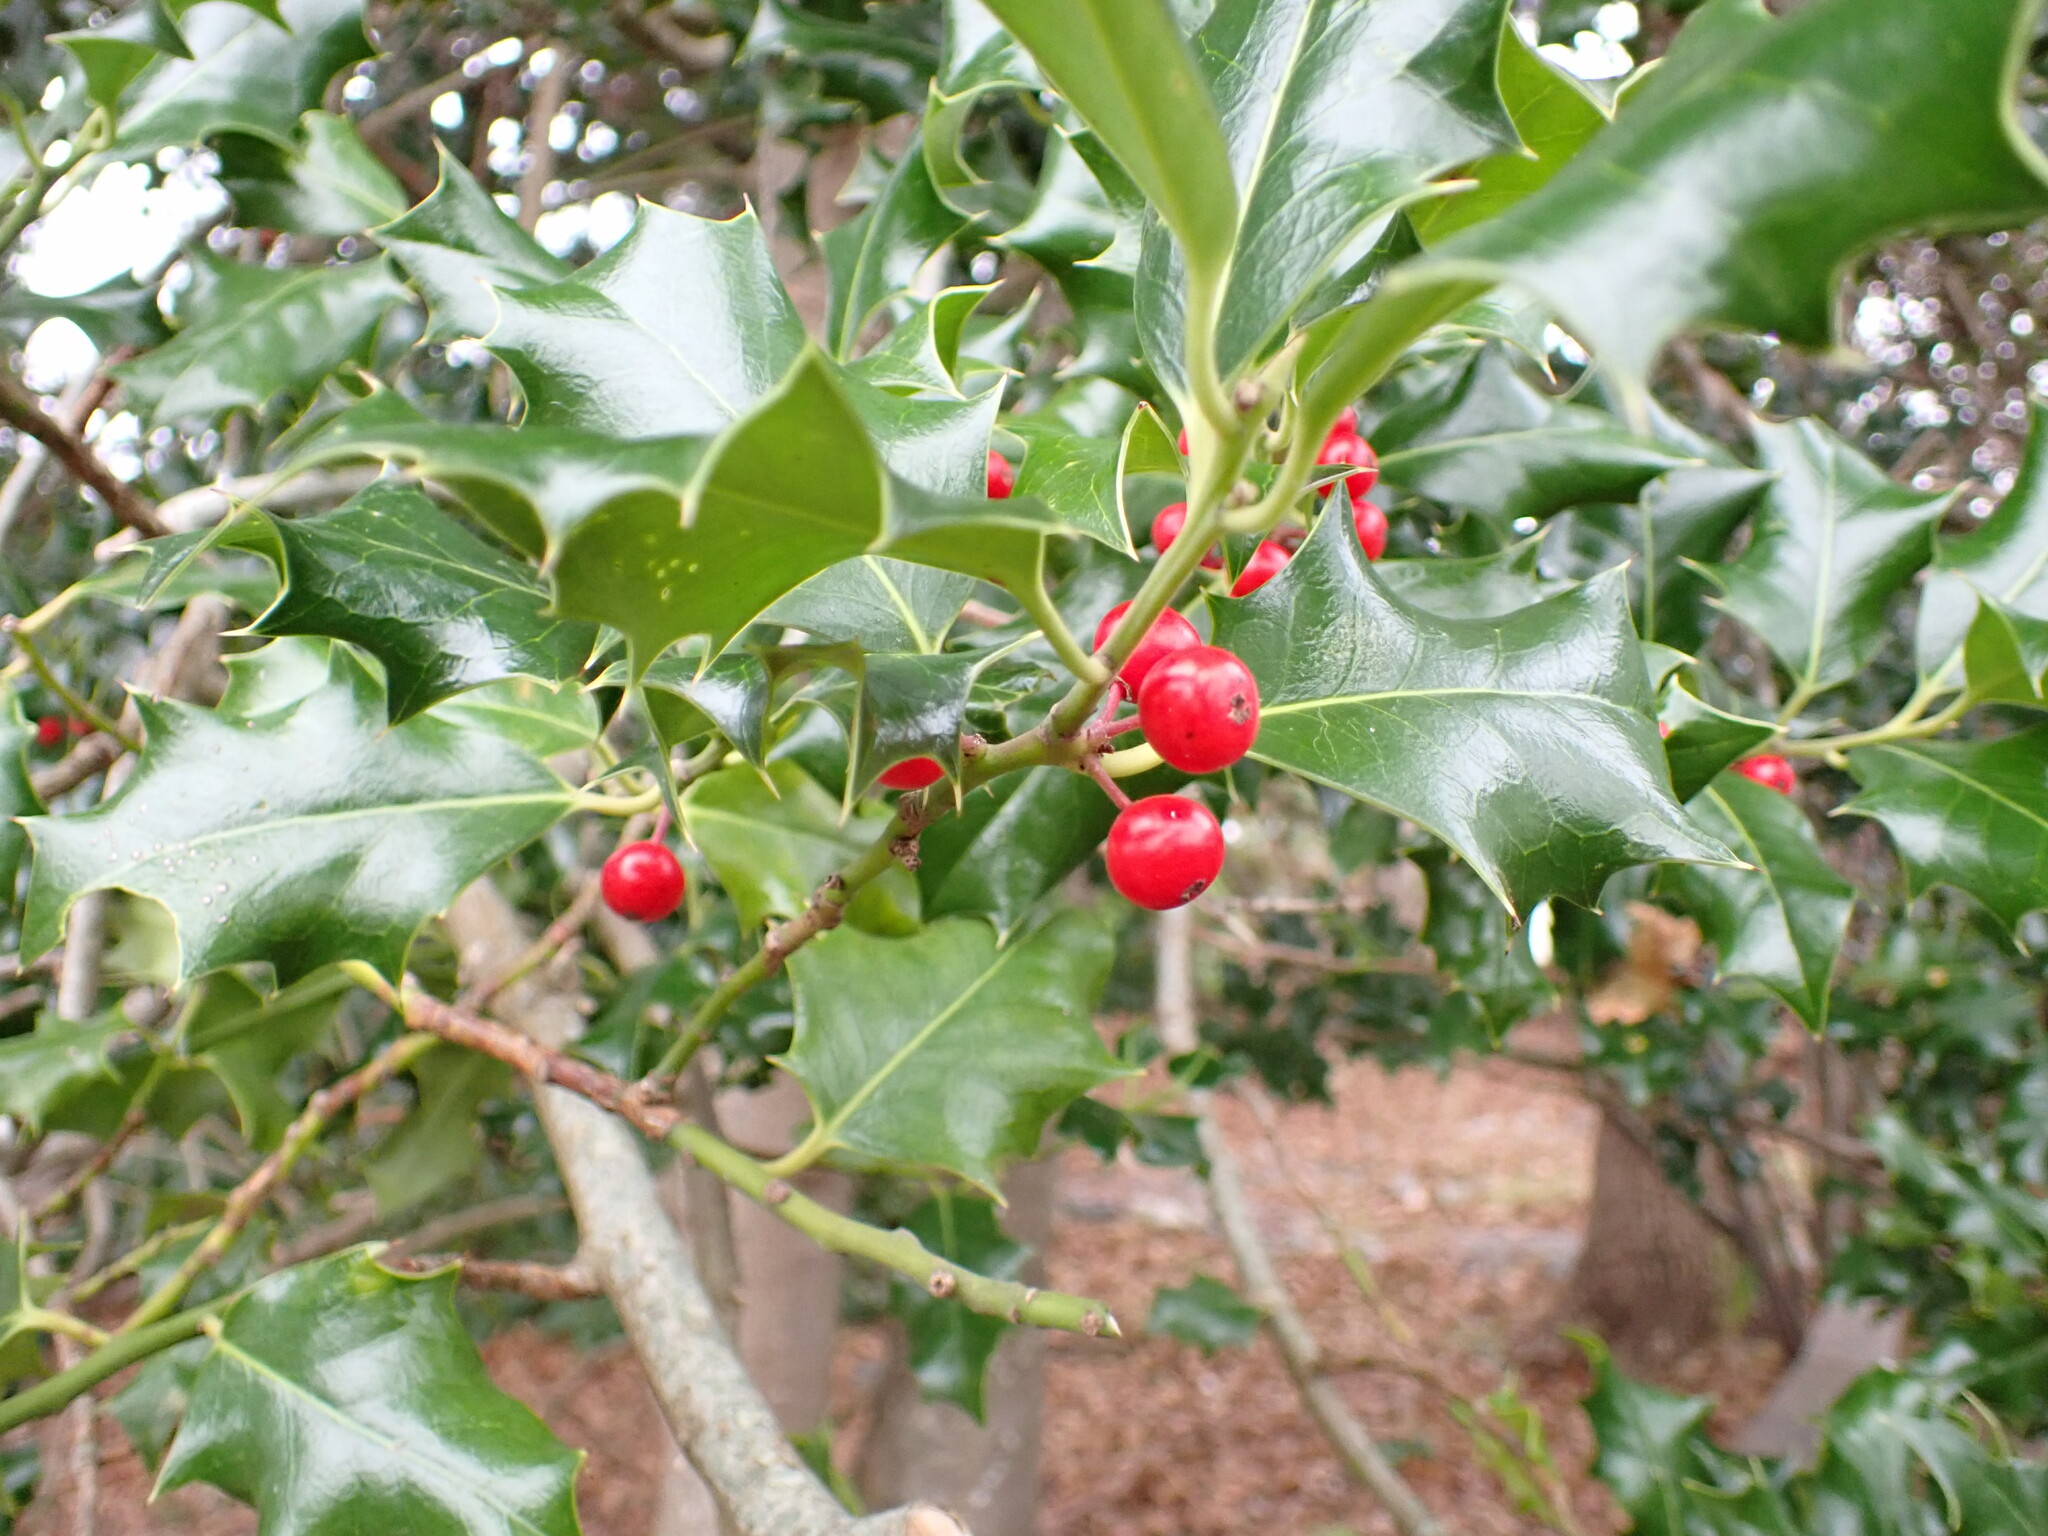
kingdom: Plantae
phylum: Tracheophyta
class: Magnoliopsida
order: Aquifoliales
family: Aquifoliaceae
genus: Ilex
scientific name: Ilex aquifolium
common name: English holly
